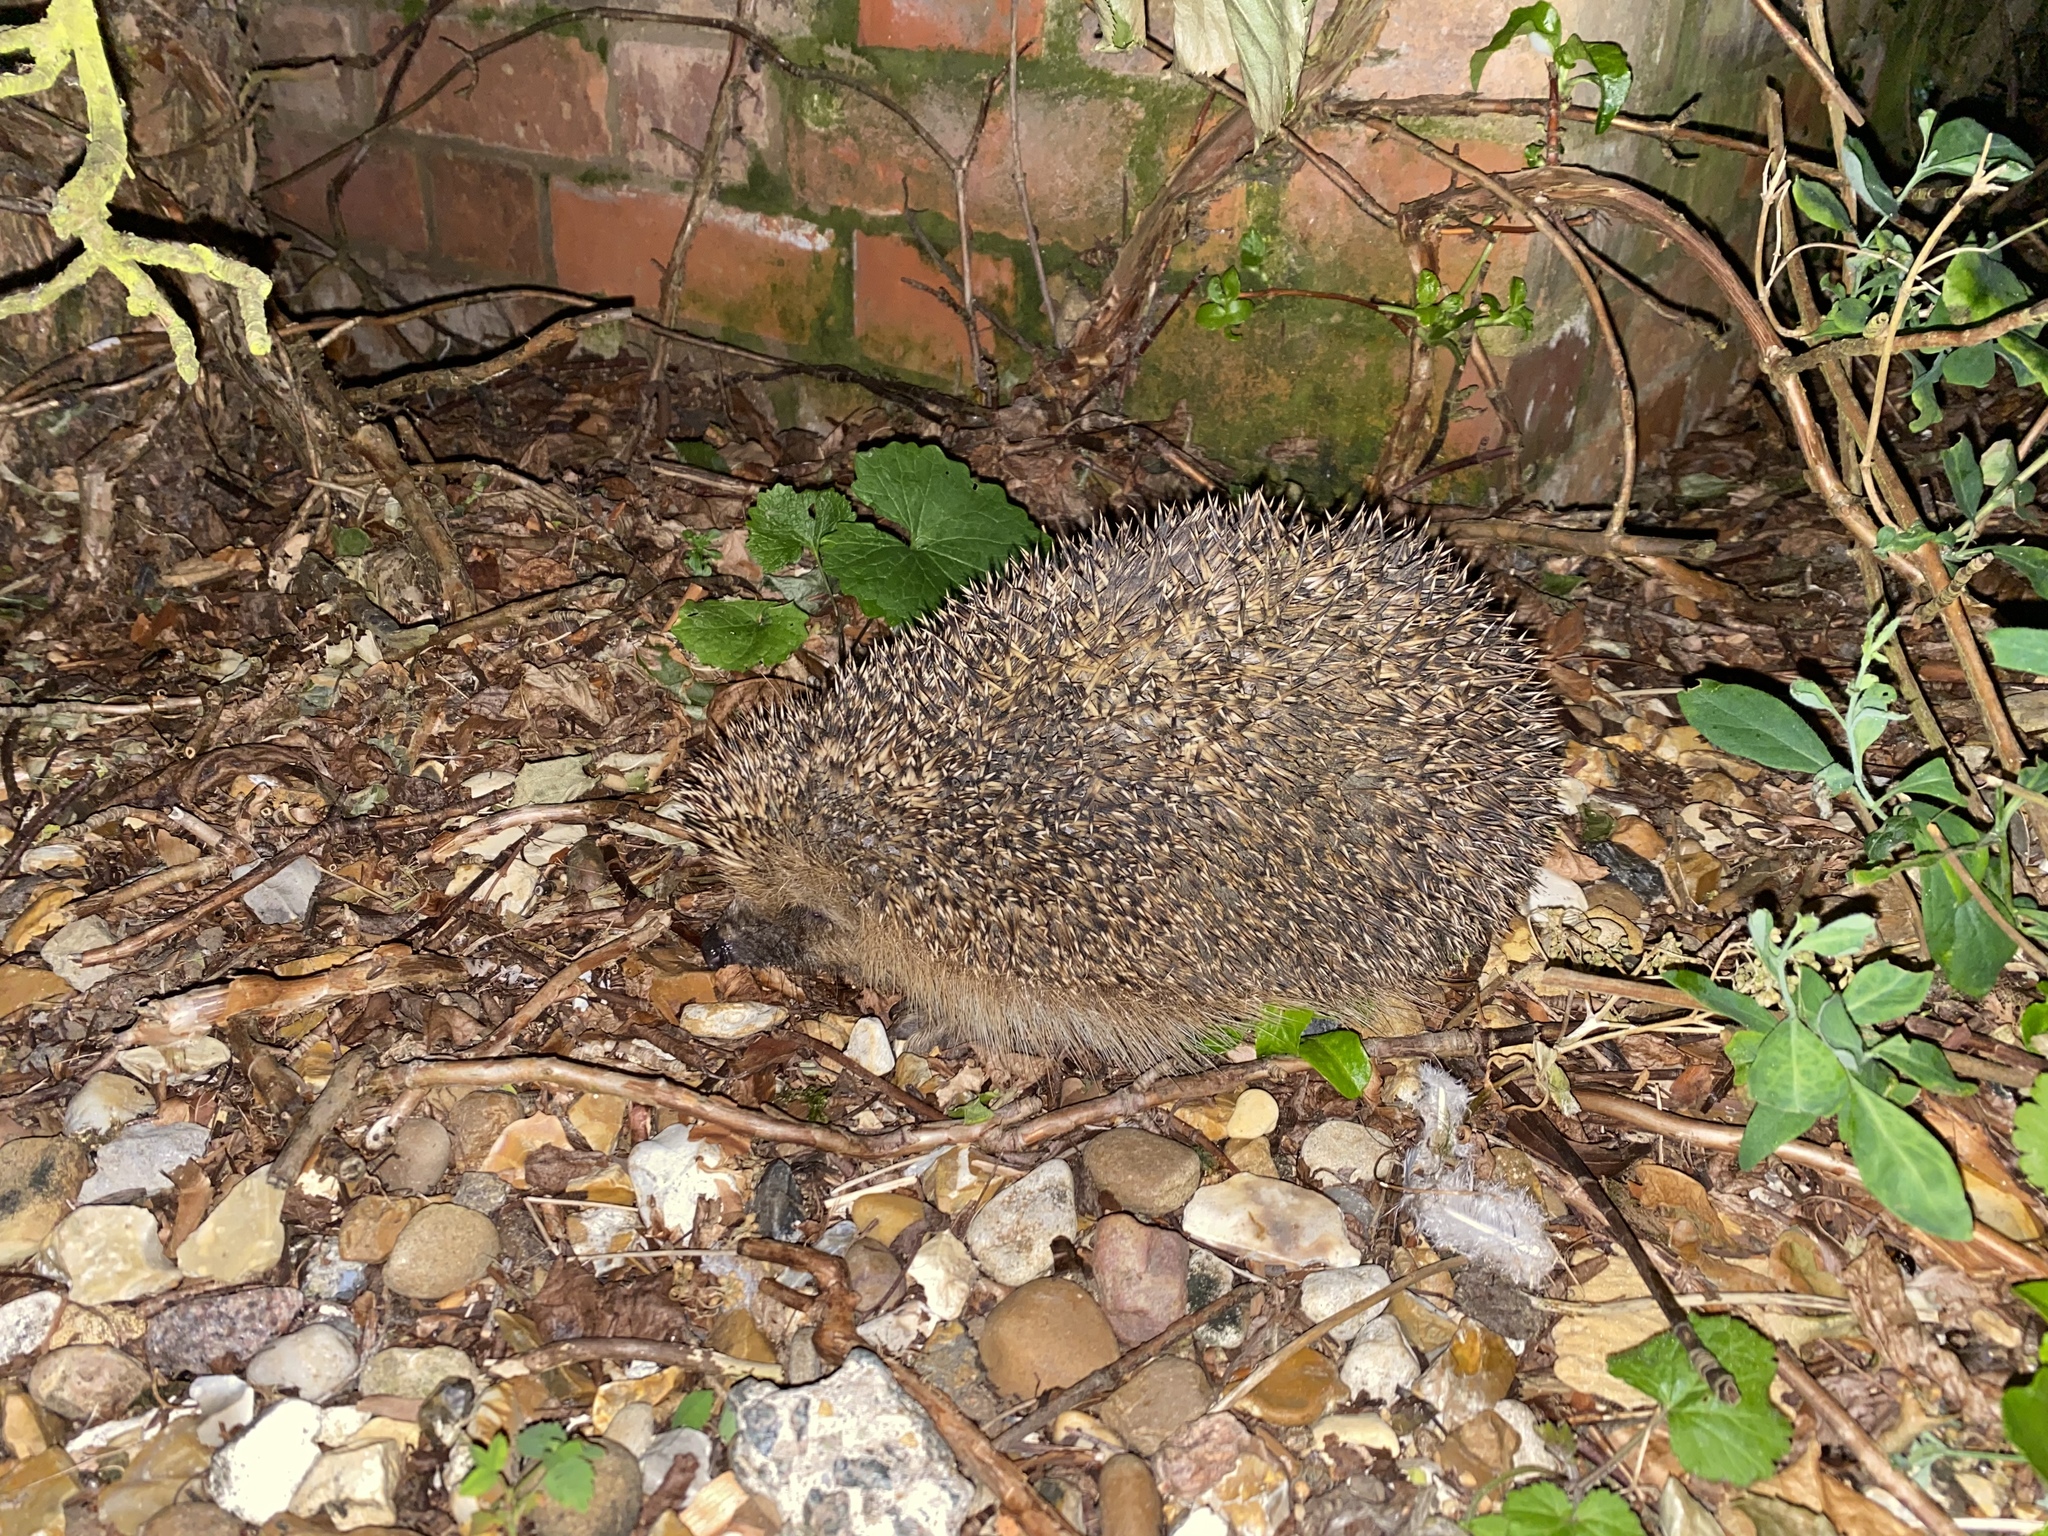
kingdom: Animalia
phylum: Chordata
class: Mammalia
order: Erinaceomorpha
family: Erinaceidae
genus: Erinaceus
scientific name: Erinaceus europaeus
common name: West european hedgehog
